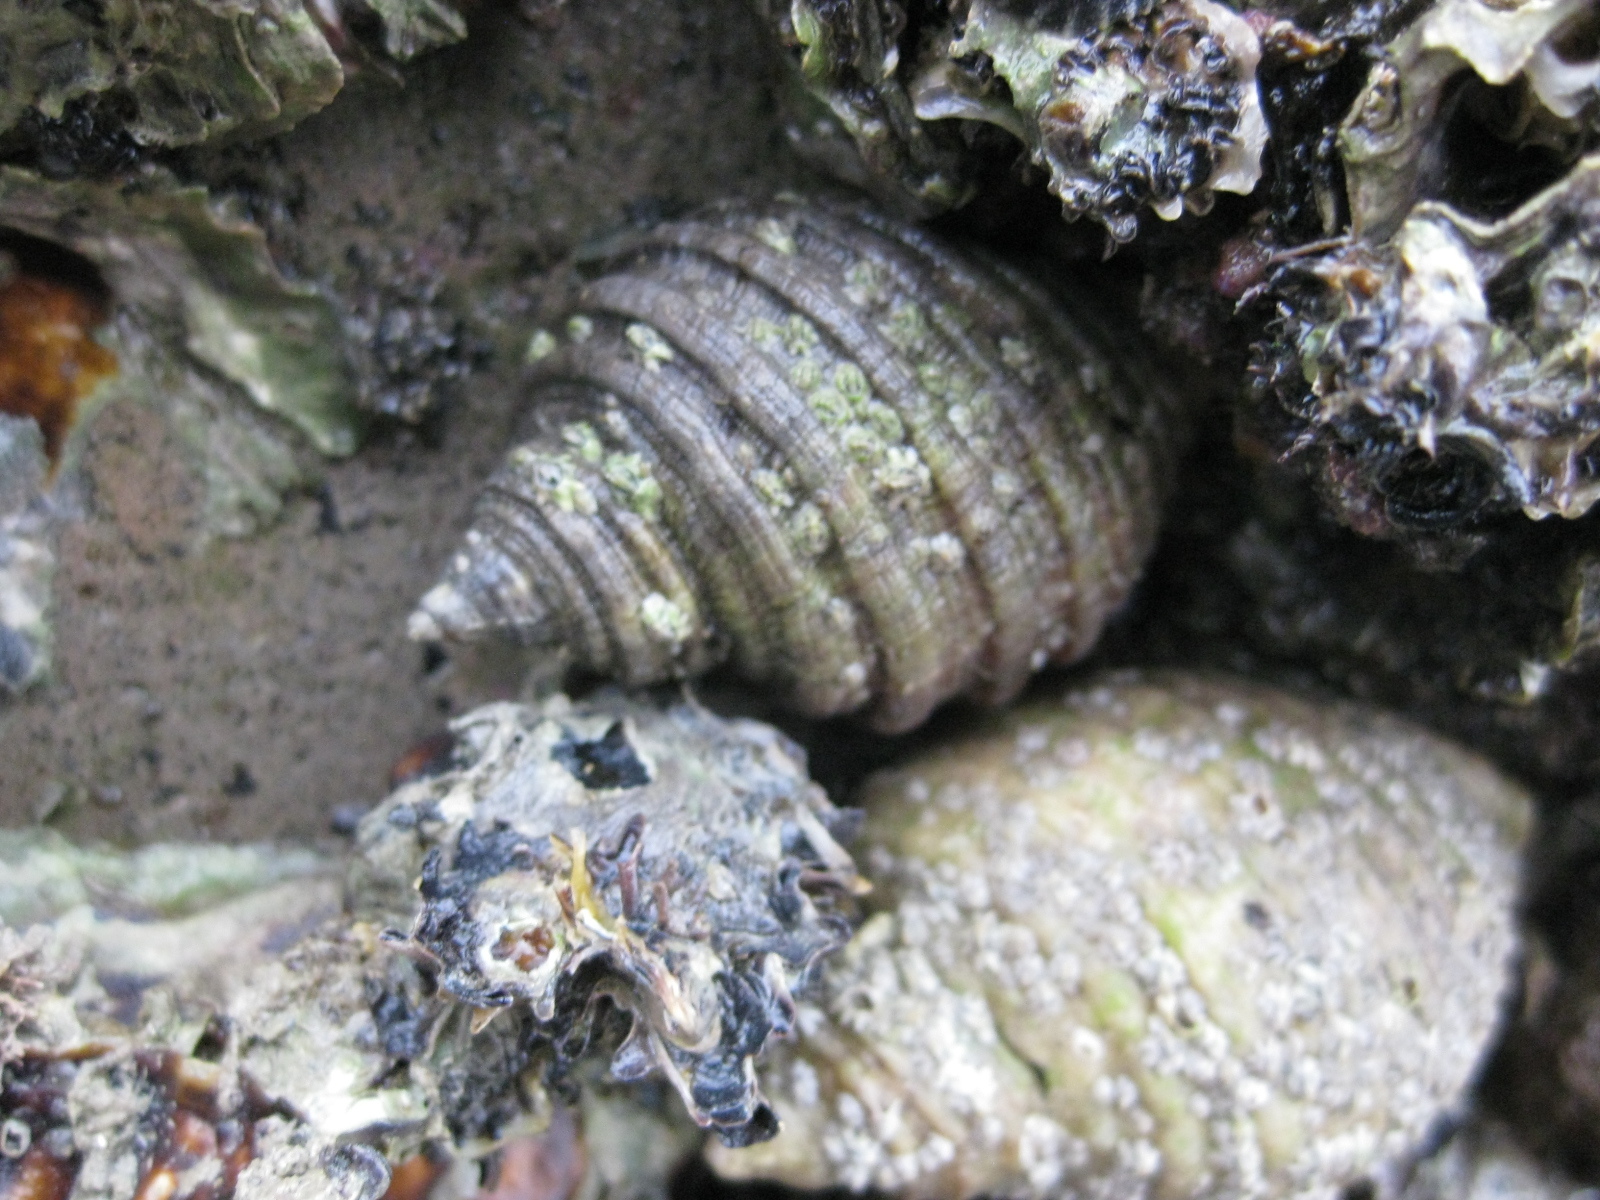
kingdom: Animalia
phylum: Mollusca
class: Gastropoda
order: Neogastropoda
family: Muricidae
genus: Dicathais
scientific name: Dicathais orbita
